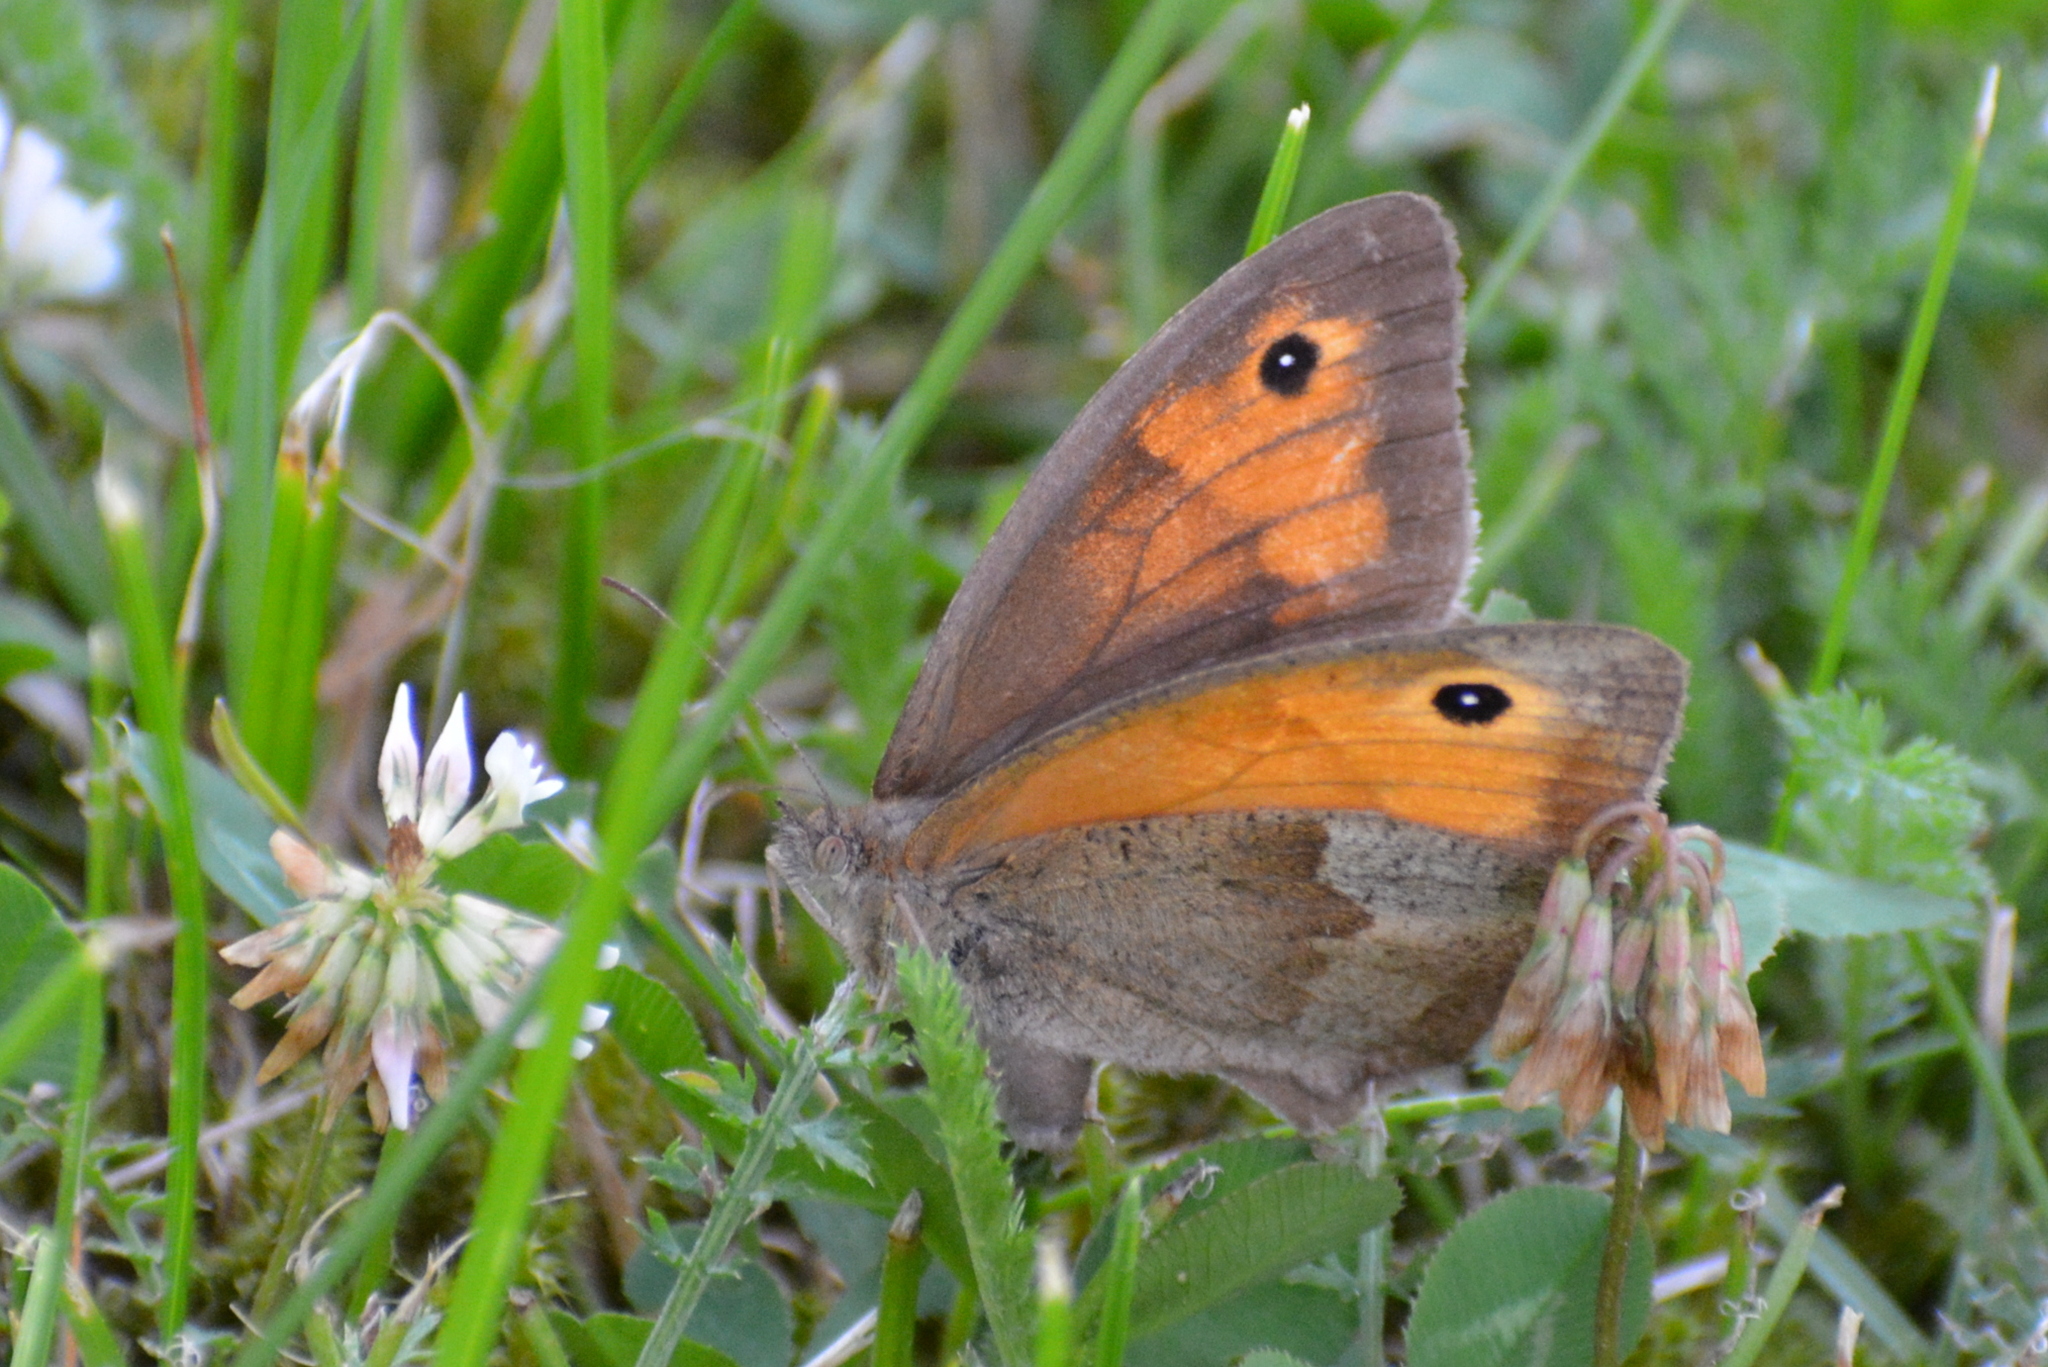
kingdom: Animalia
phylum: Arthropoda
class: Insecta
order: Lepidoptera
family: Nymphalidae
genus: Maniola
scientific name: Maniola jurtina
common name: Meadow brown
